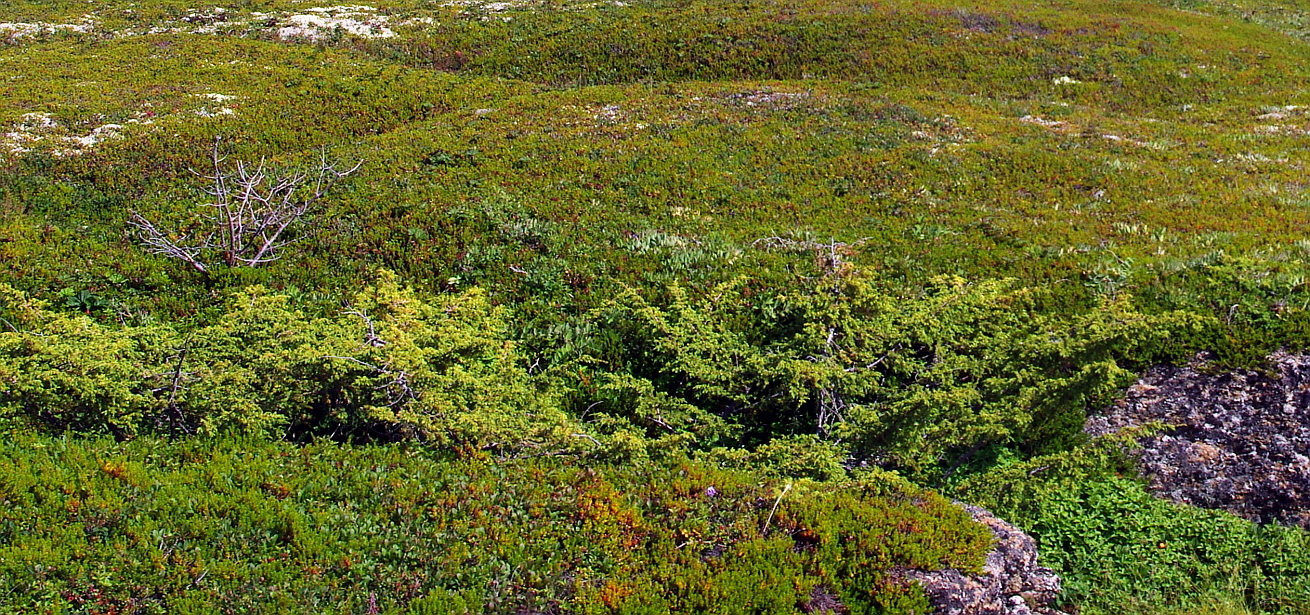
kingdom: Plantae
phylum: Tracheophyta
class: Pinopsida
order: Pinales
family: Cupressaceae
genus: Juniperus
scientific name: Juniperus communis
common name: Common juniper
